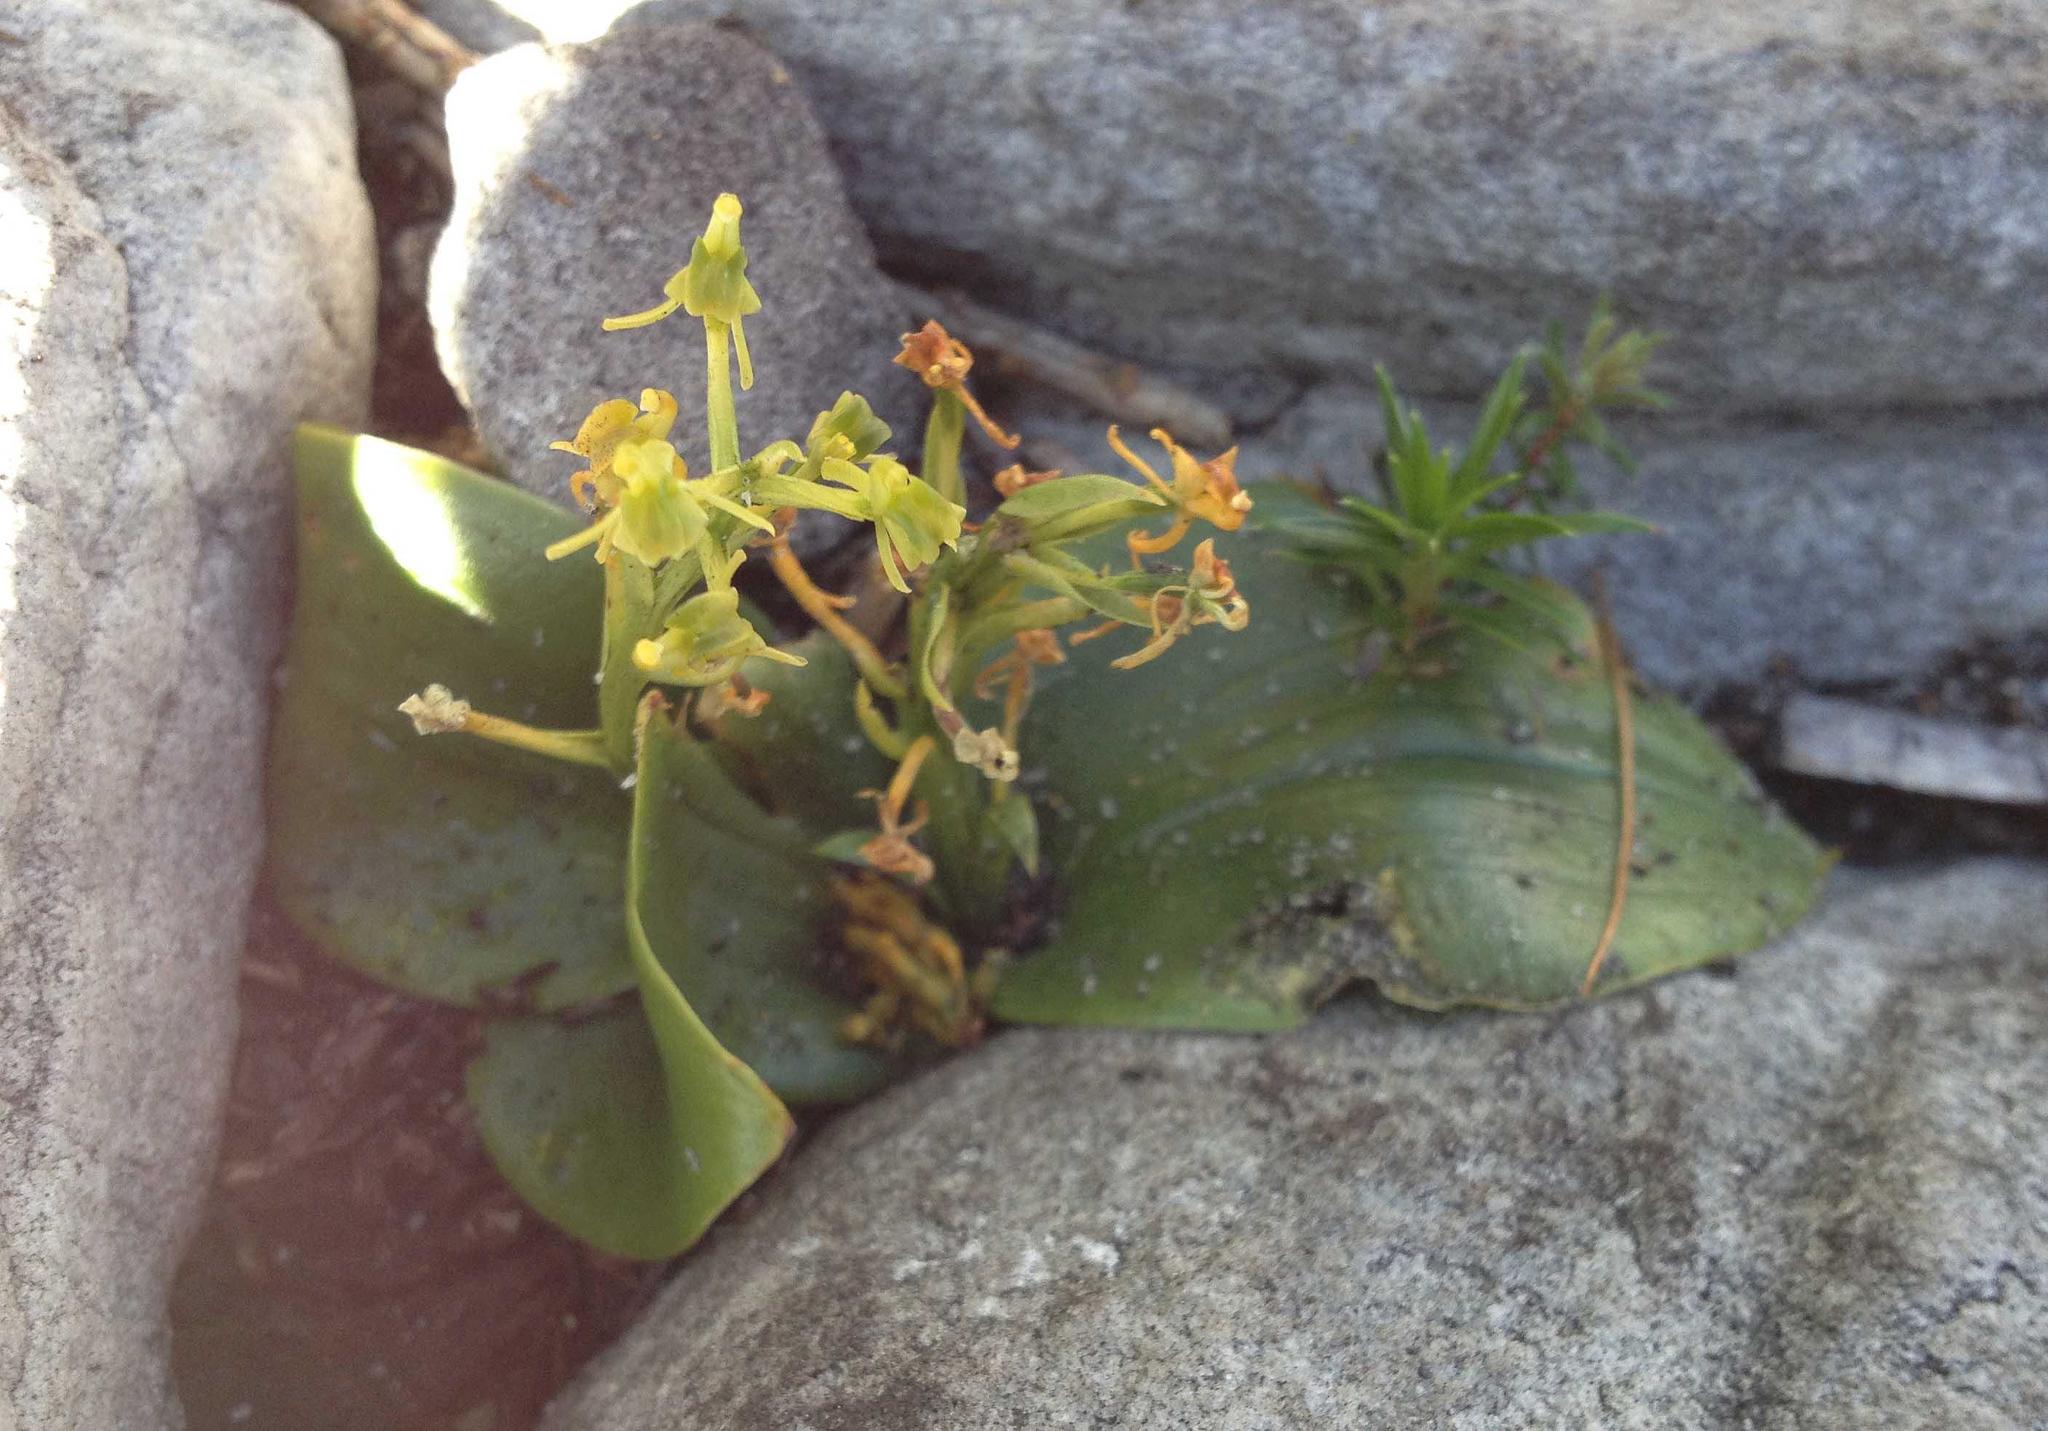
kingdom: Plantae
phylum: Tracheophyta
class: Liliopsida
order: Asparagales
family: Orchidaceae
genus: Liparis
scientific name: Liparis capensis
